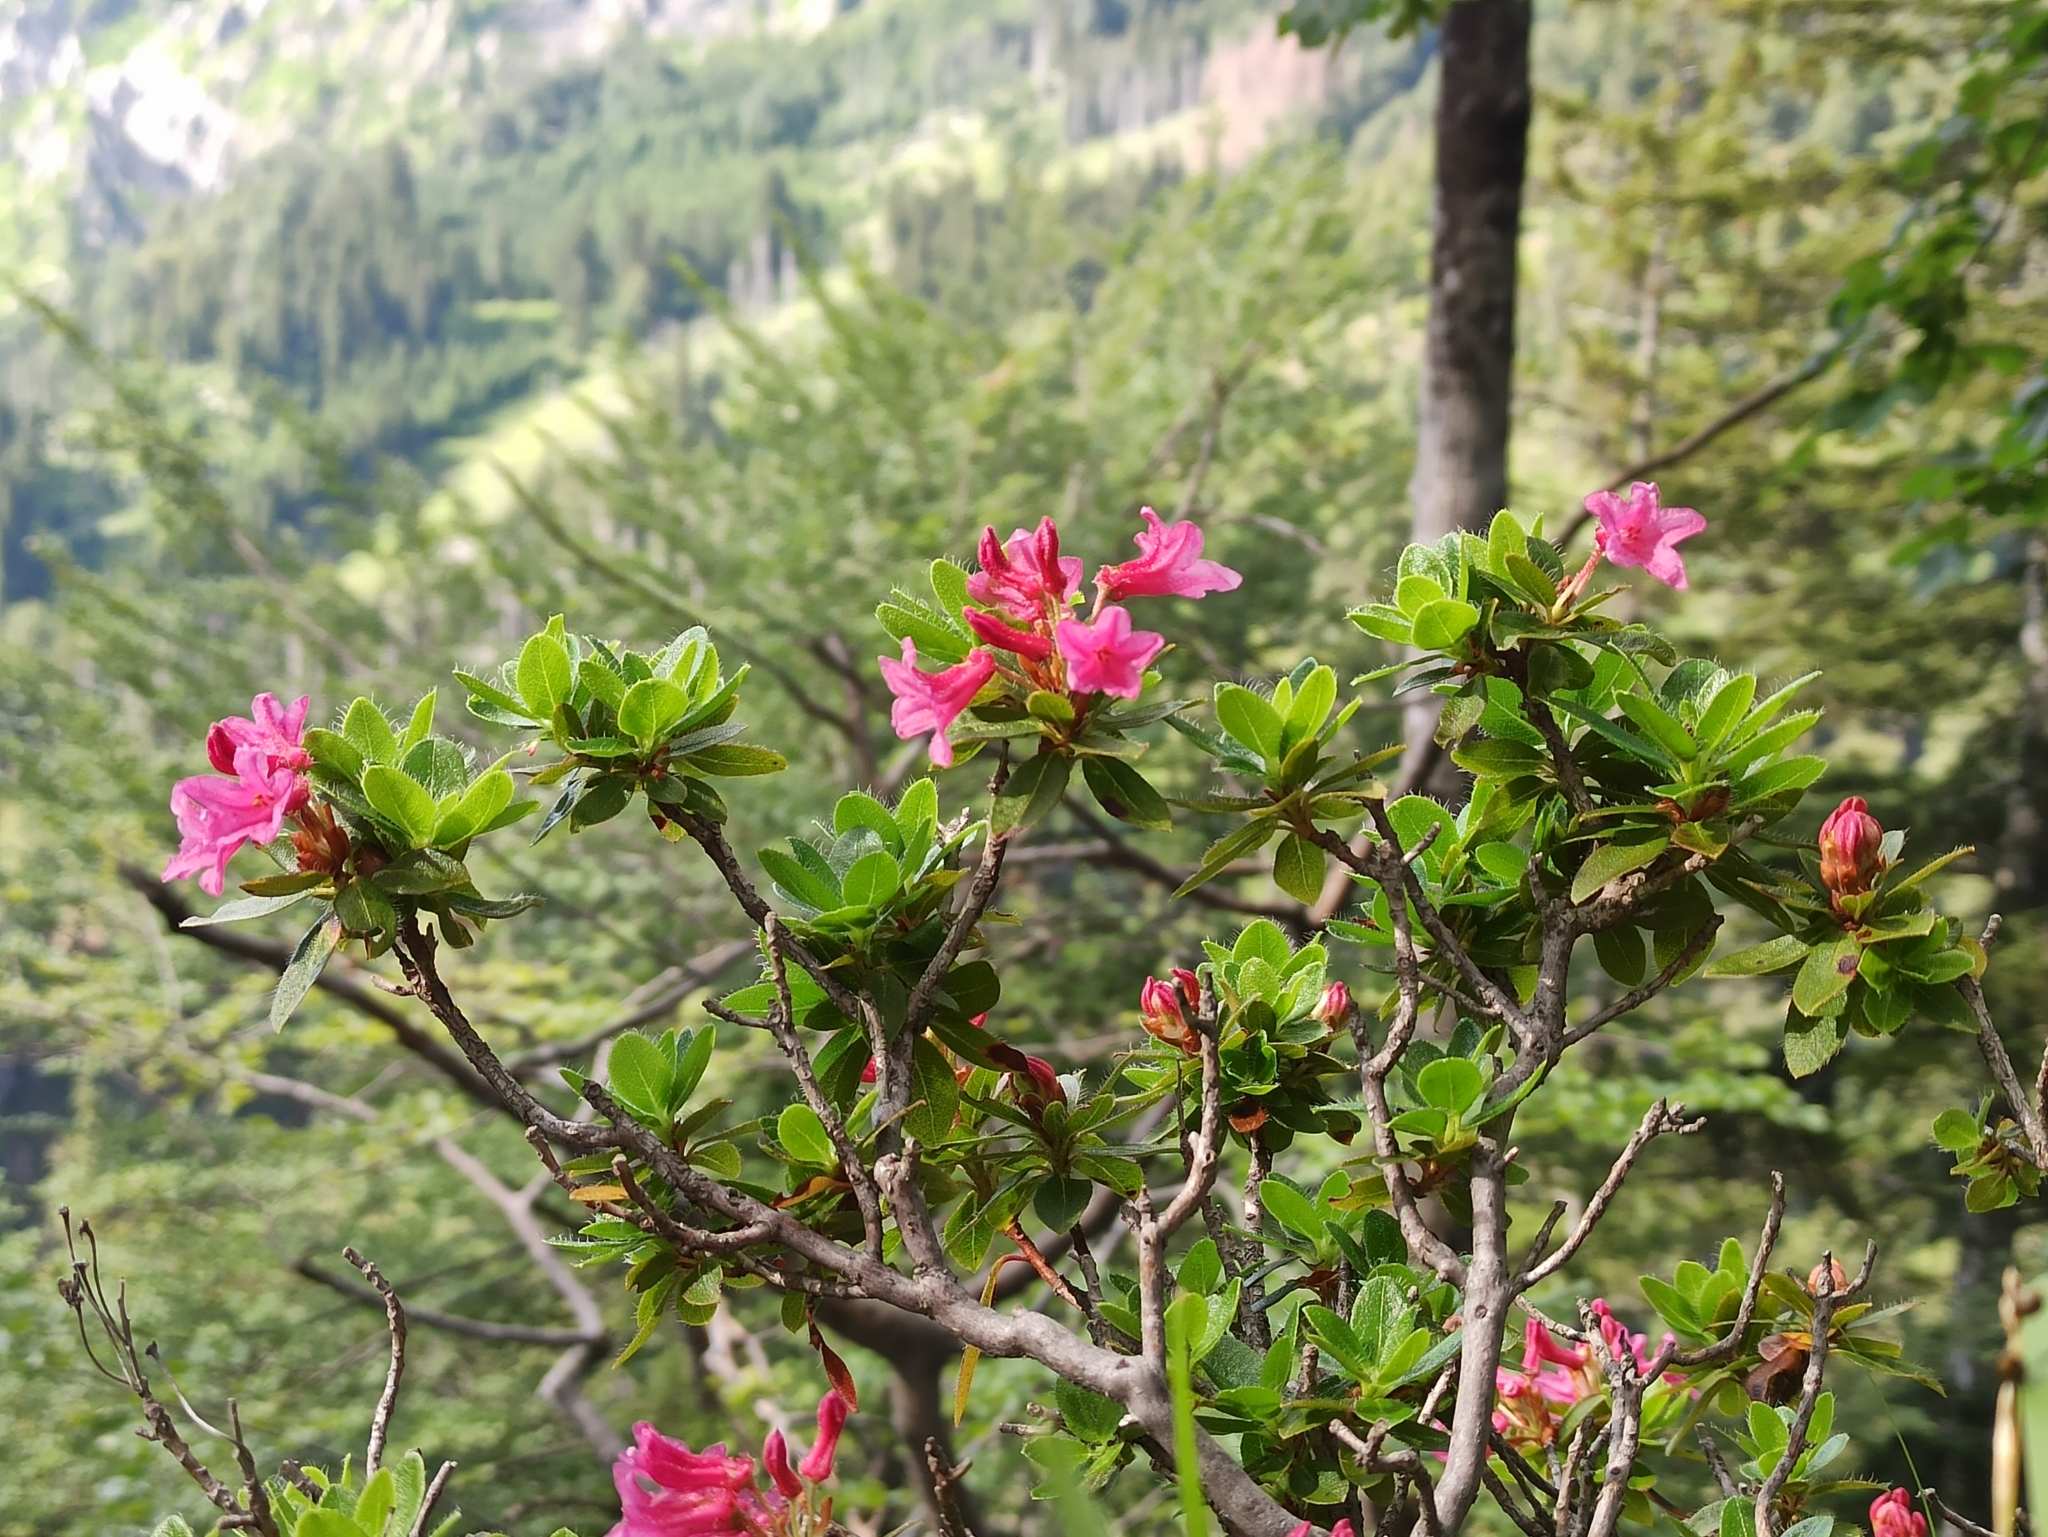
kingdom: Plantae
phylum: Tracheophyta
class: Magnoliopsida
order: Ericales
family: Ericaceae
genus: Rhododendron
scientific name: Rhododendron hirsutum
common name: Hairy alpenrose
